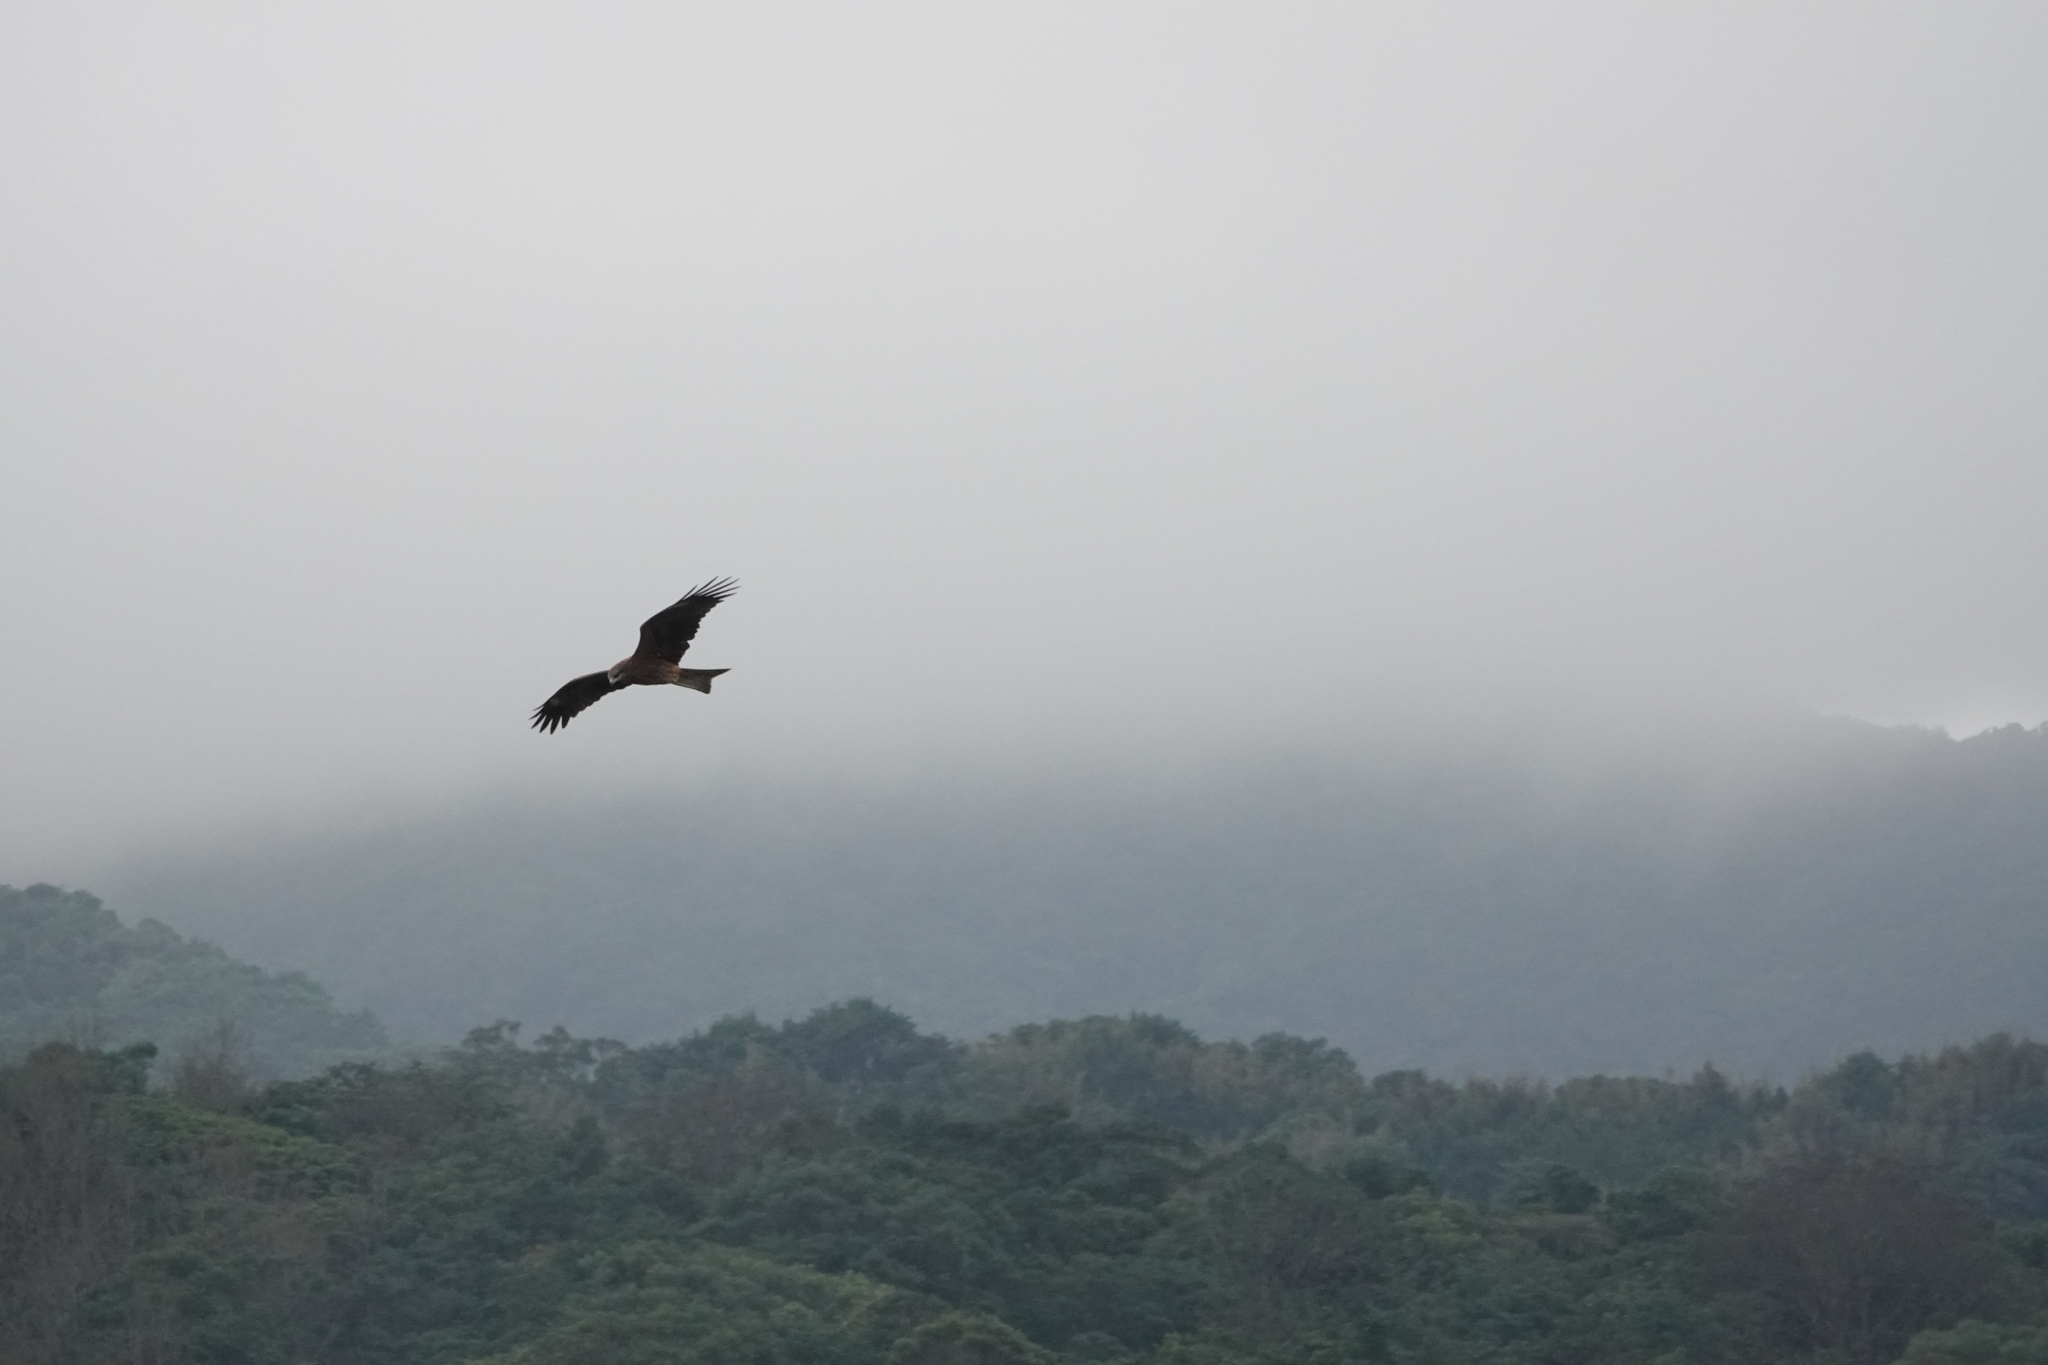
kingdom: Animalia
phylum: Chordata
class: Aves
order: Accipitriformes
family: Accipitridae
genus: Milvus
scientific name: Milvus migrans
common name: Black kite
